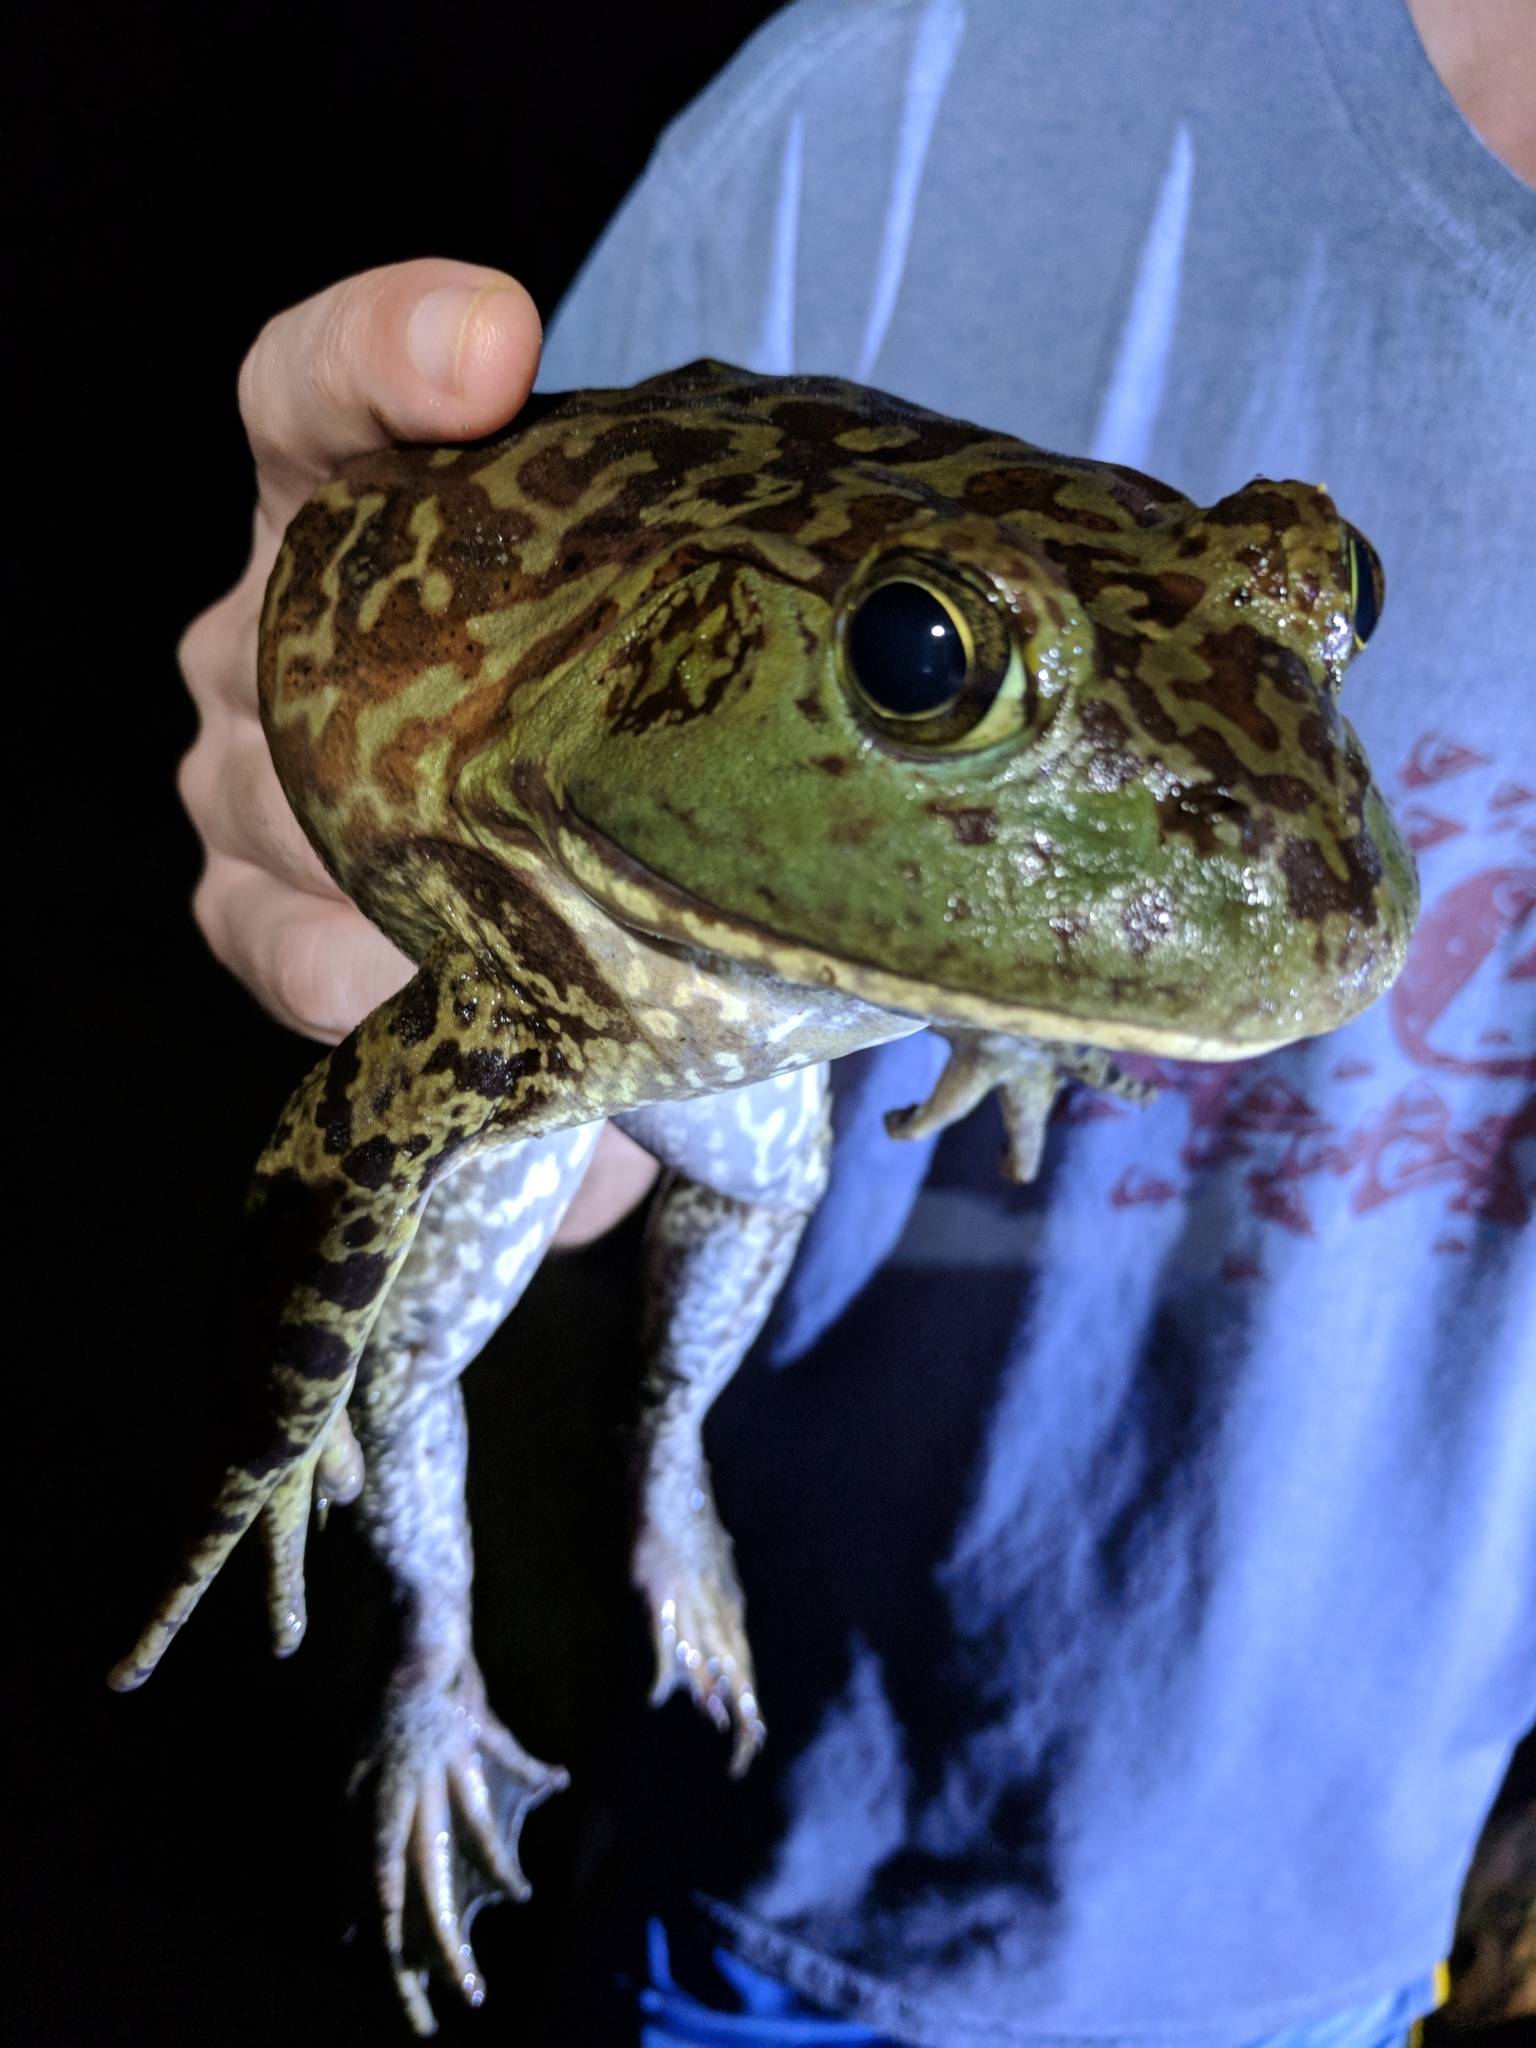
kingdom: Animalia
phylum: Chordata
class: Amphibia
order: Anura
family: Ranidae
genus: Lithobates
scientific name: Lithobates catesbeianus
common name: American bullfrog
